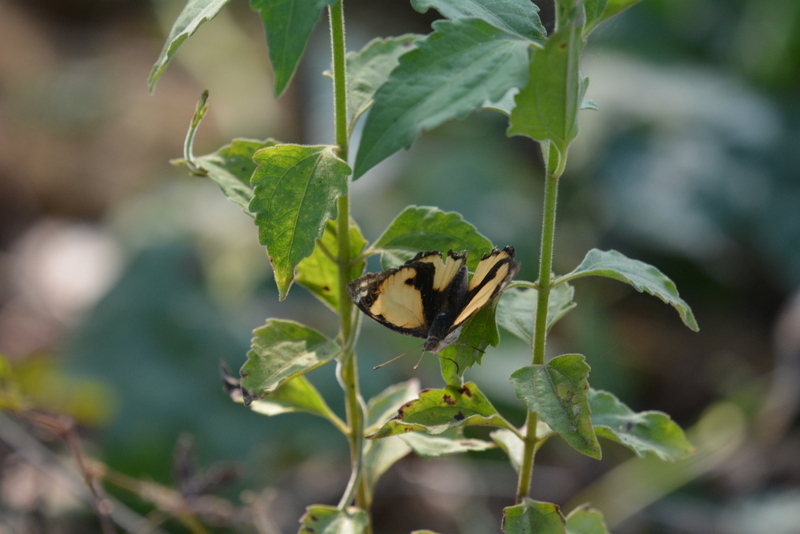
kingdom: Animalia
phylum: Arthropoda
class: Insecta
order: Lepidoptera
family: Nymphalidae
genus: Junonia
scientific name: Junonia hierta
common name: Yellow pansy
